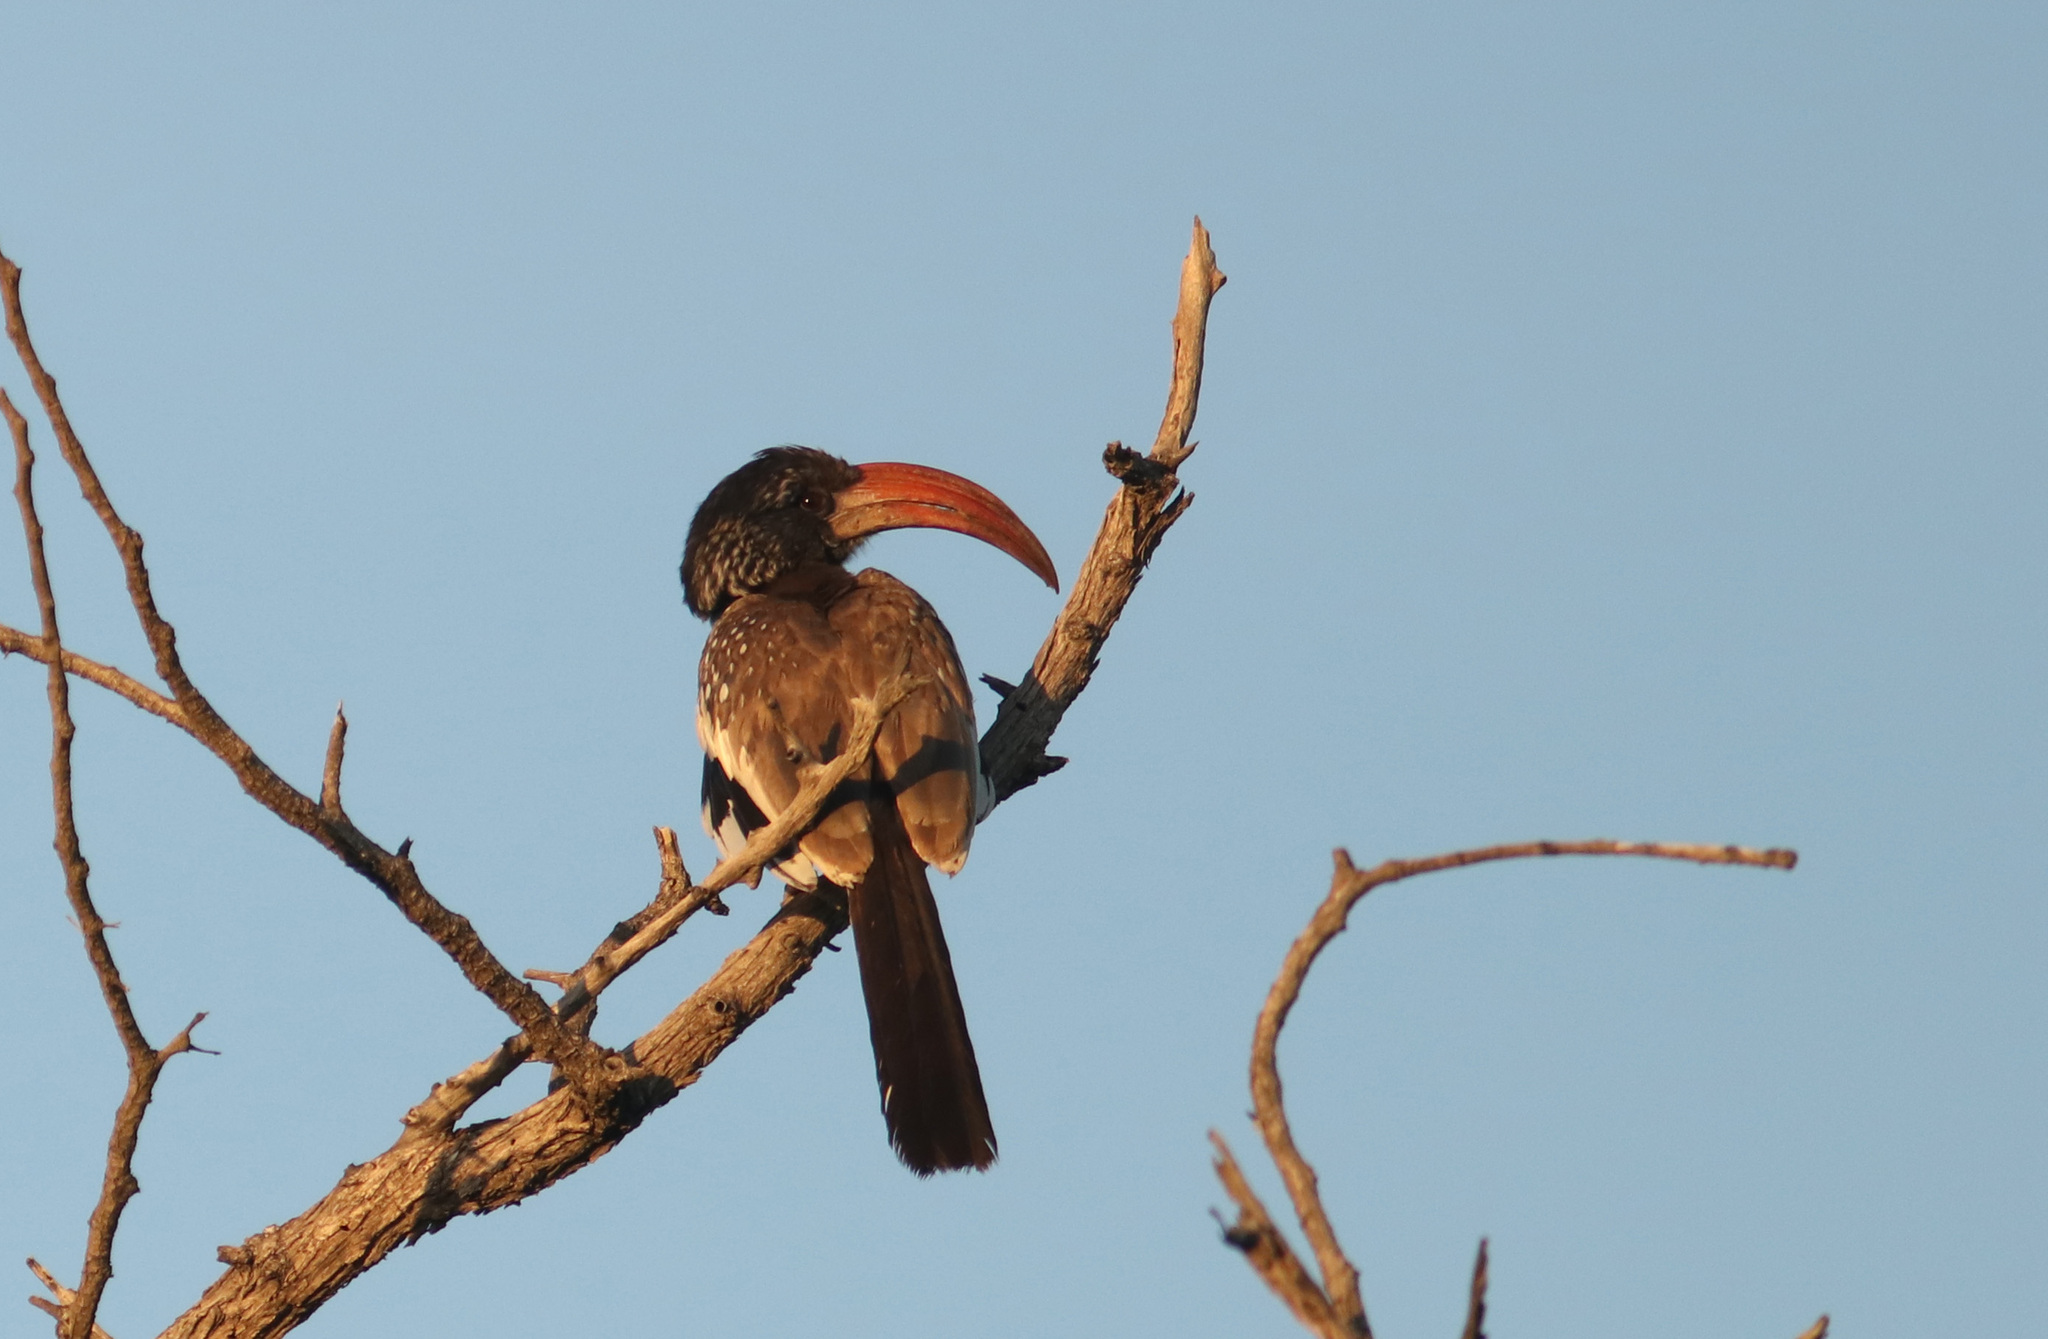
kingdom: Animalia
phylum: Chordata
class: Aves
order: Bucerotiformes
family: Bucerotidae
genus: Tockus
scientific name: Tockus monteiri
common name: Monteiro's hornbill
